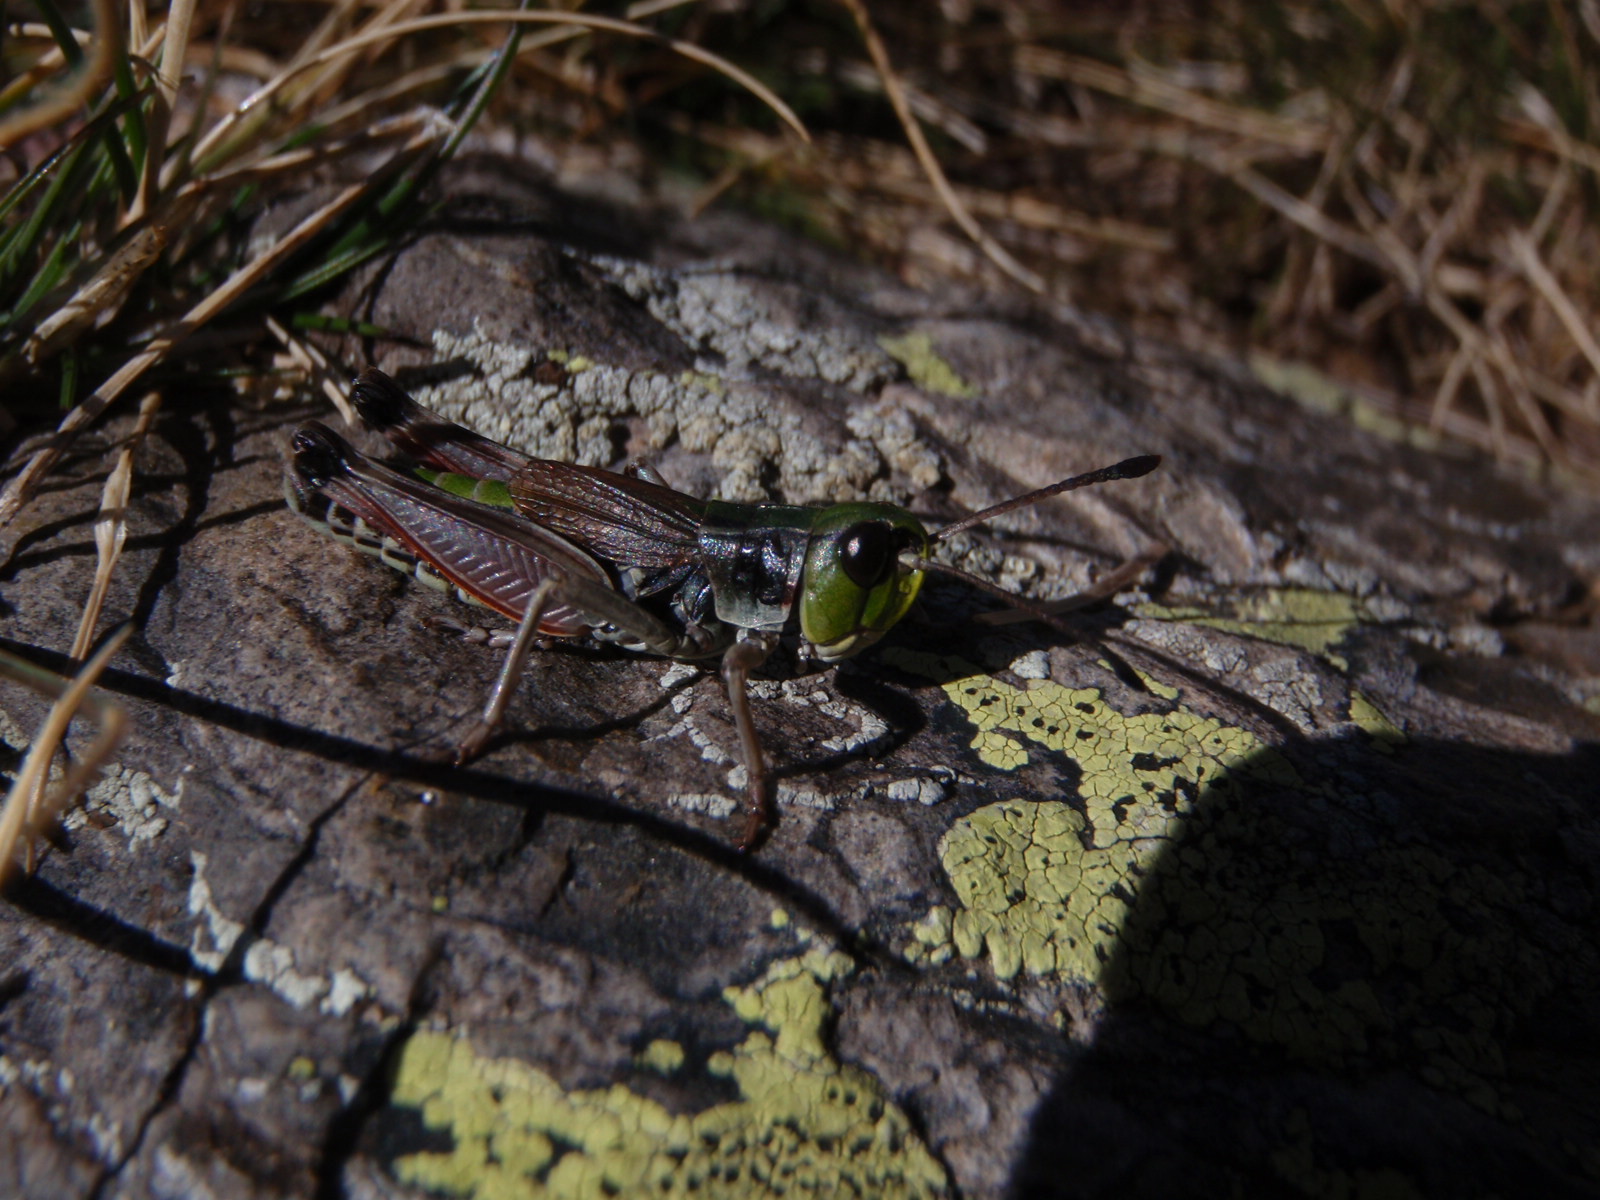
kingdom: Animalia
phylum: Arthropoda
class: Insecta
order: Orthoptera
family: Acrididae
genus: Gomphoceridius
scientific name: Gomphoceridius brevipenne
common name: Pyrenean short-winged grasshopper
